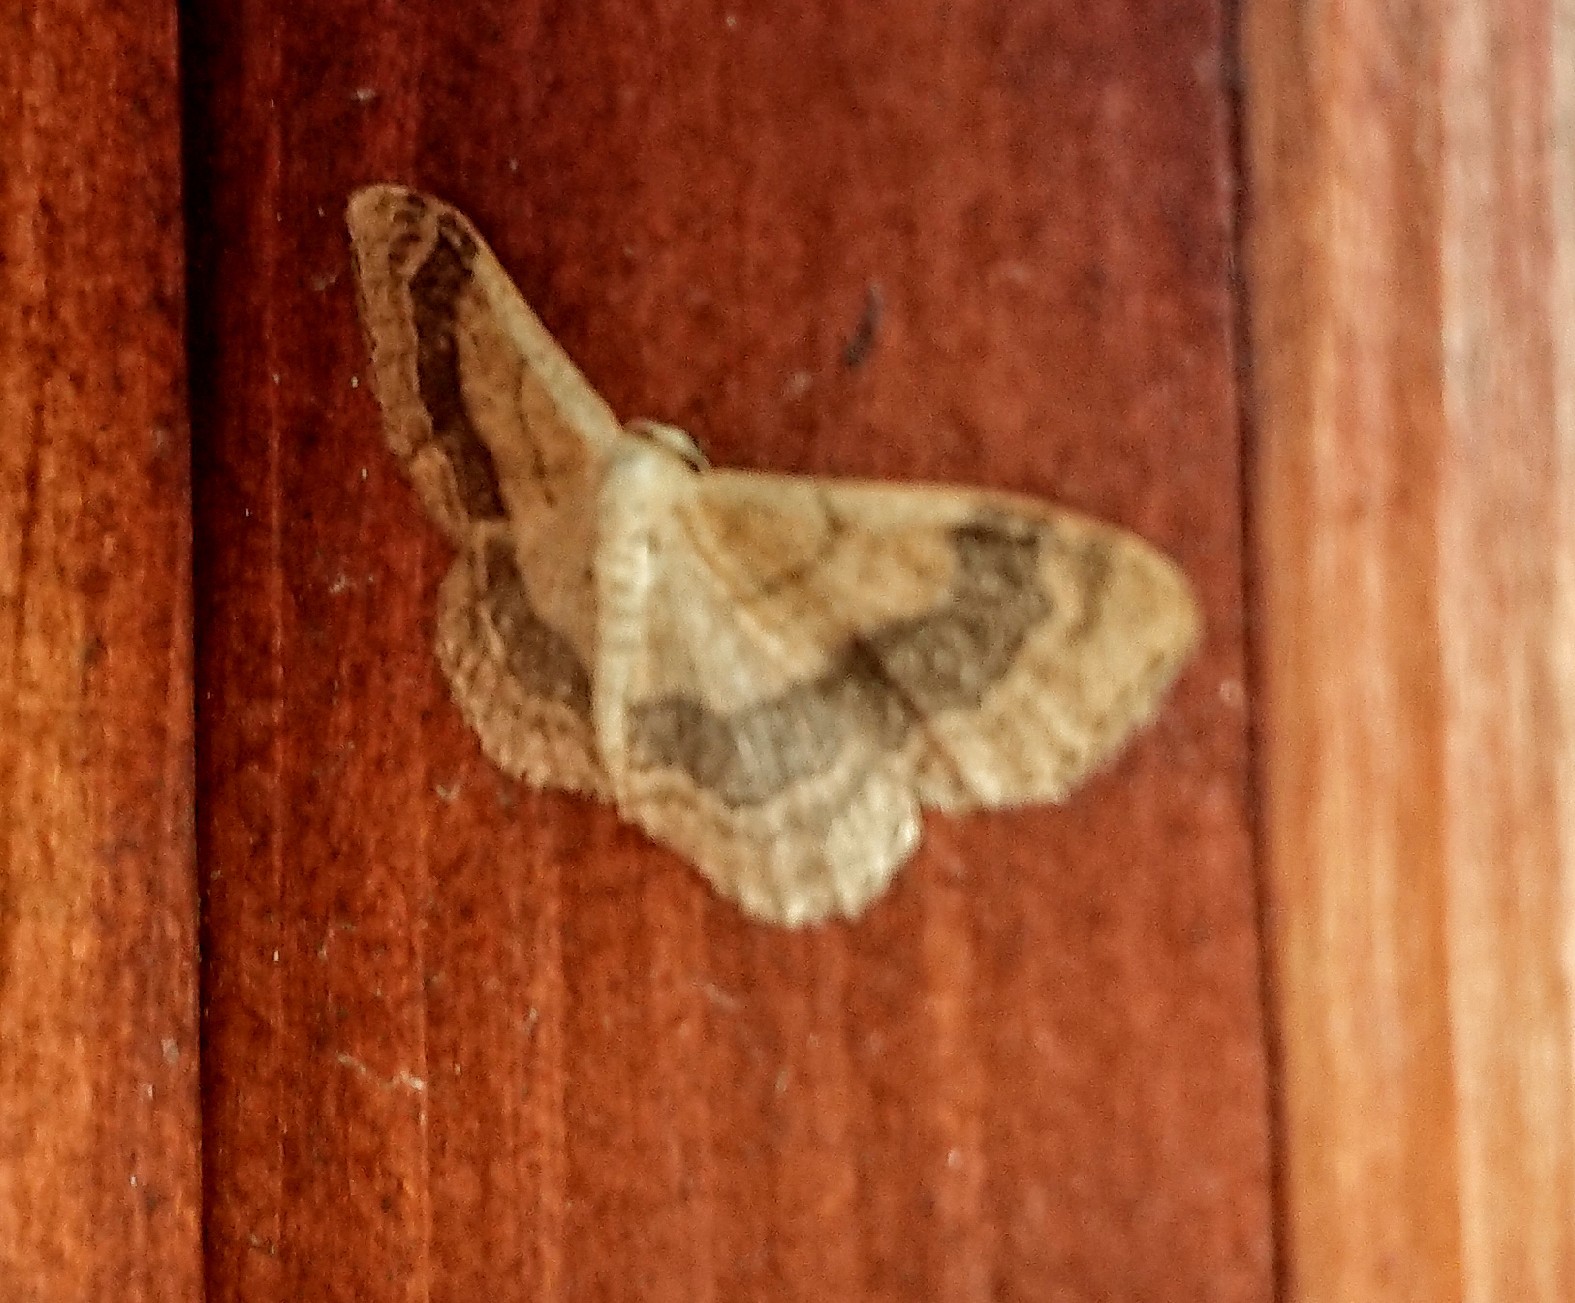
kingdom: Animalia
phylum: Arthropoda
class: Insecta
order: Lepidoptera
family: Geometridae
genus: Idaea
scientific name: Idaea aversata
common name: Riband wave
